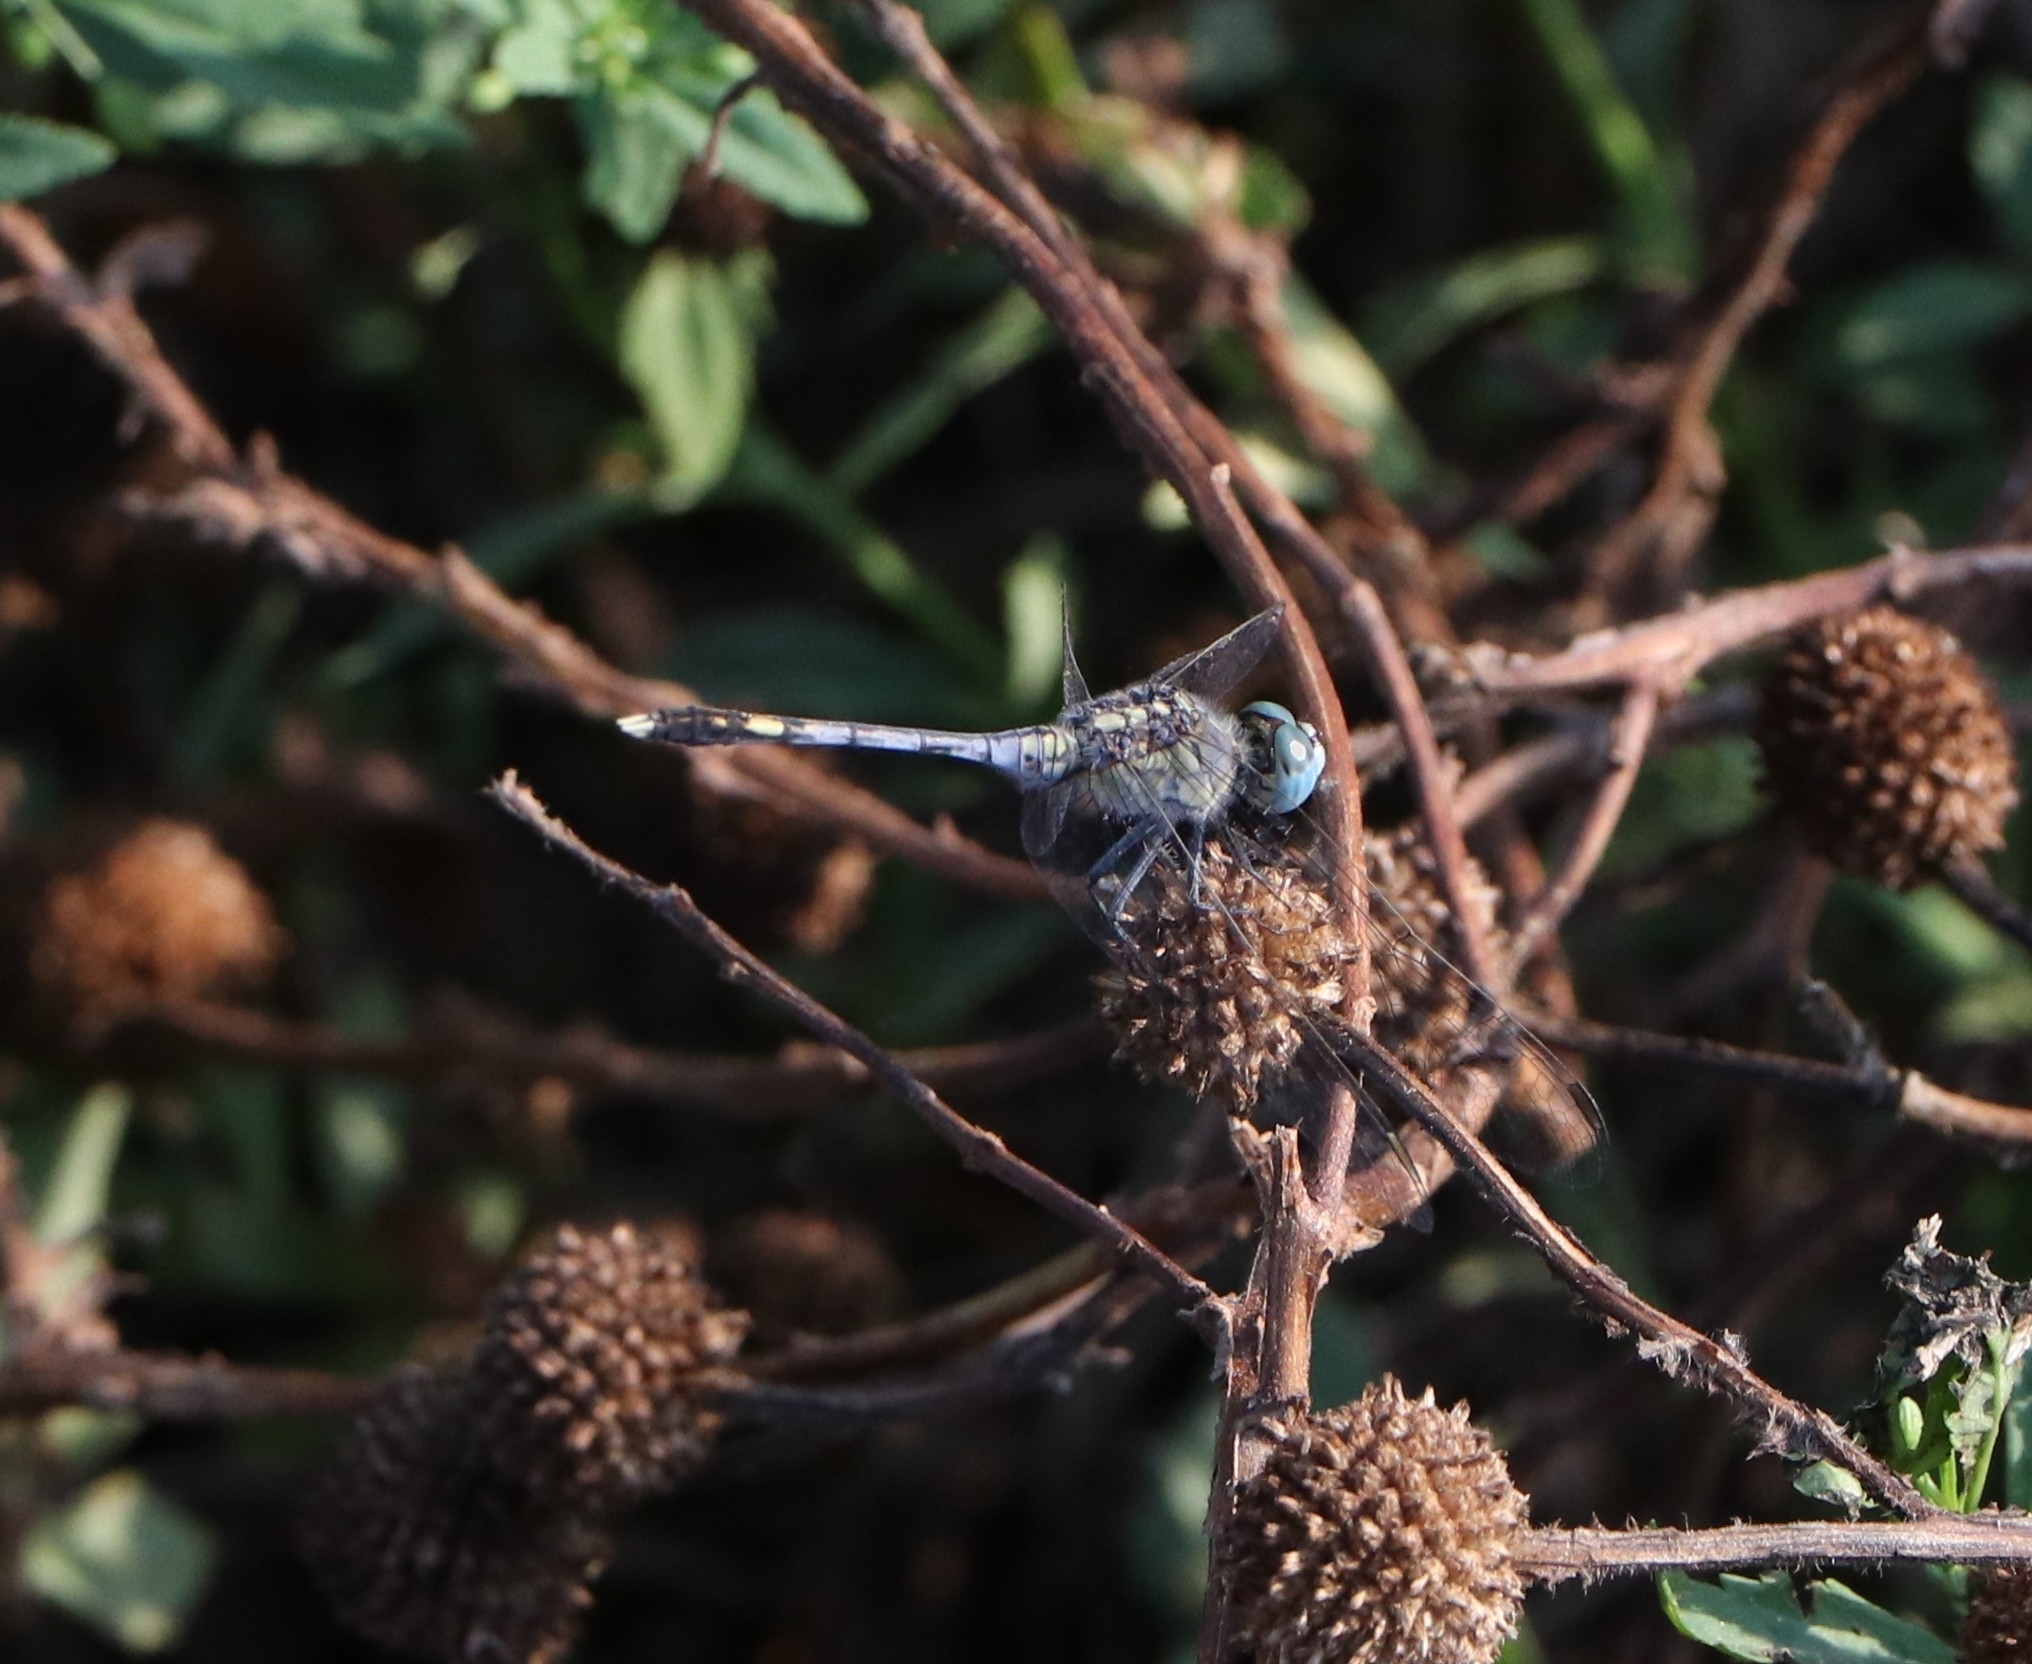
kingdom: Animalia
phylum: Arthropoda
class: Insecta
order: Odonata
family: Libellulidae
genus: Diplacodes
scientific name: Diplacodes trivialis
